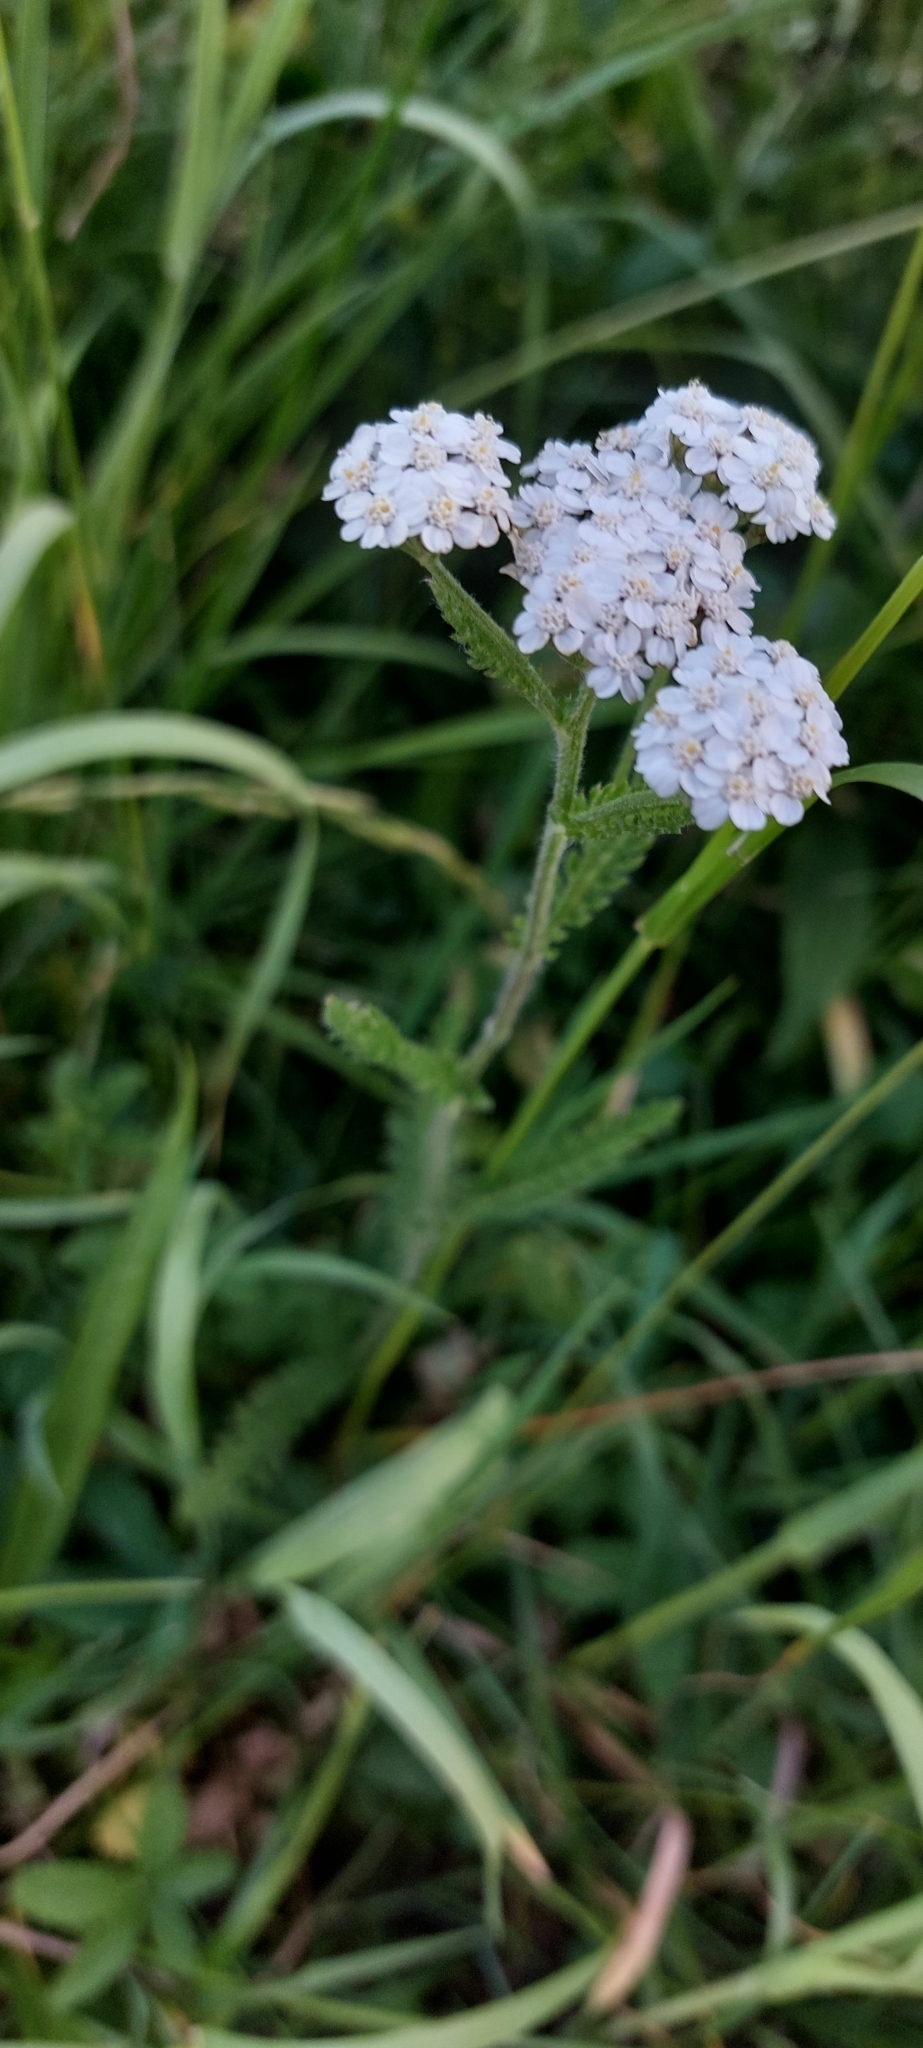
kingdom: Plantae
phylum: Tracheophyta
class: Magnoliopsida
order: Asterales
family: Asteraceae
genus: Achillea
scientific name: Achillea millefolium
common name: Yarrow
